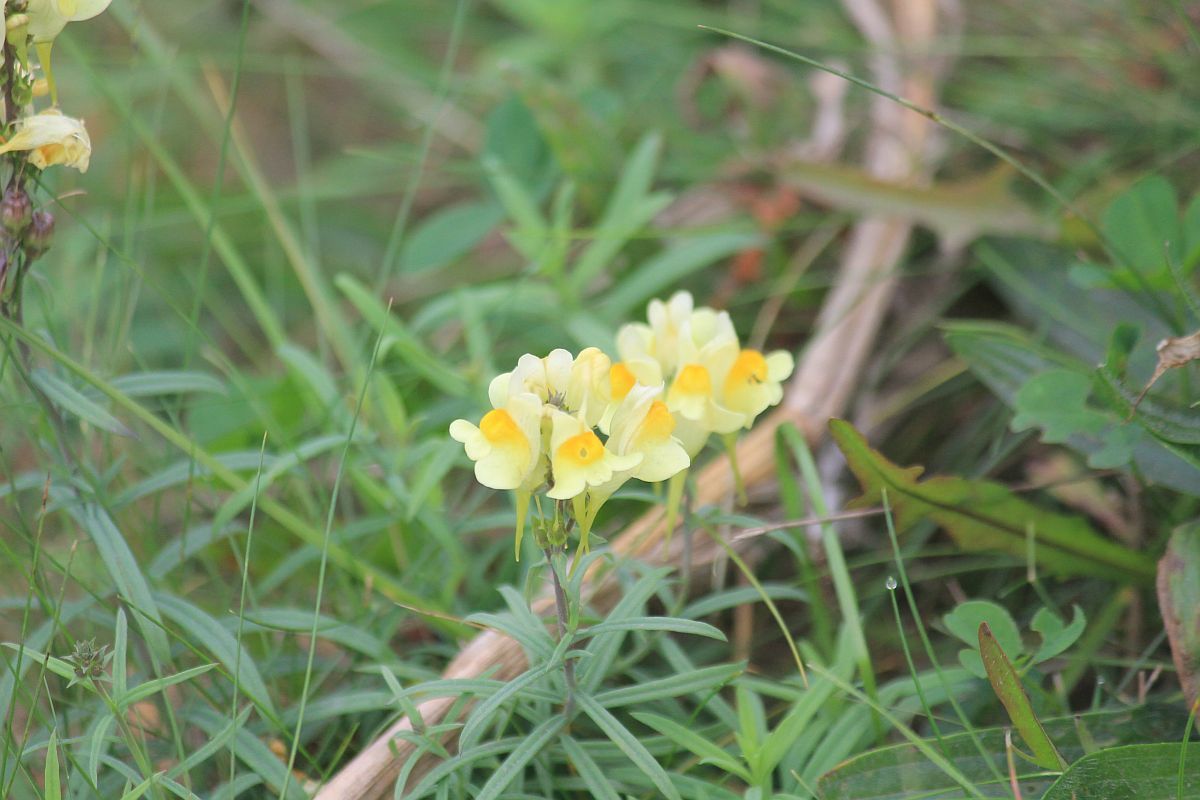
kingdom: Plantae
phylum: Tracheophyta
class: Magnoliopsida
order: Lamiales
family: Plantaginaceae
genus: Linaria
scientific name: Linaria vulgaris
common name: Butter and eggs
